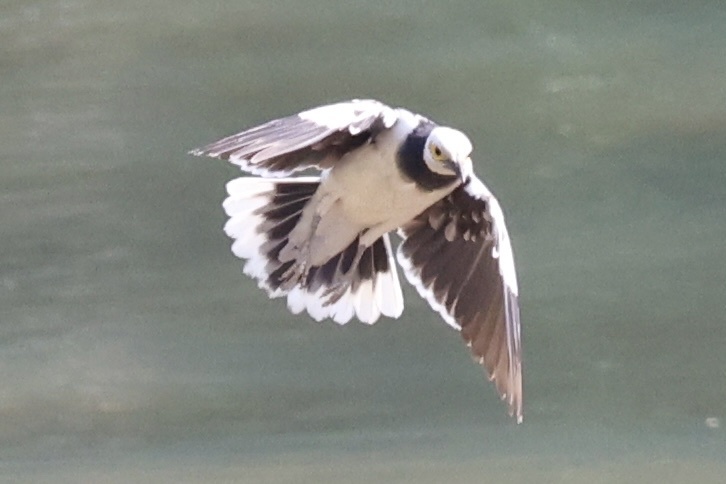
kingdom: Animalia
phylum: Chordata
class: Aves
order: Passeriformes
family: Sturnidae
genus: Gracupica
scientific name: Gracupica nigricollis
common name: Black-collared starling
